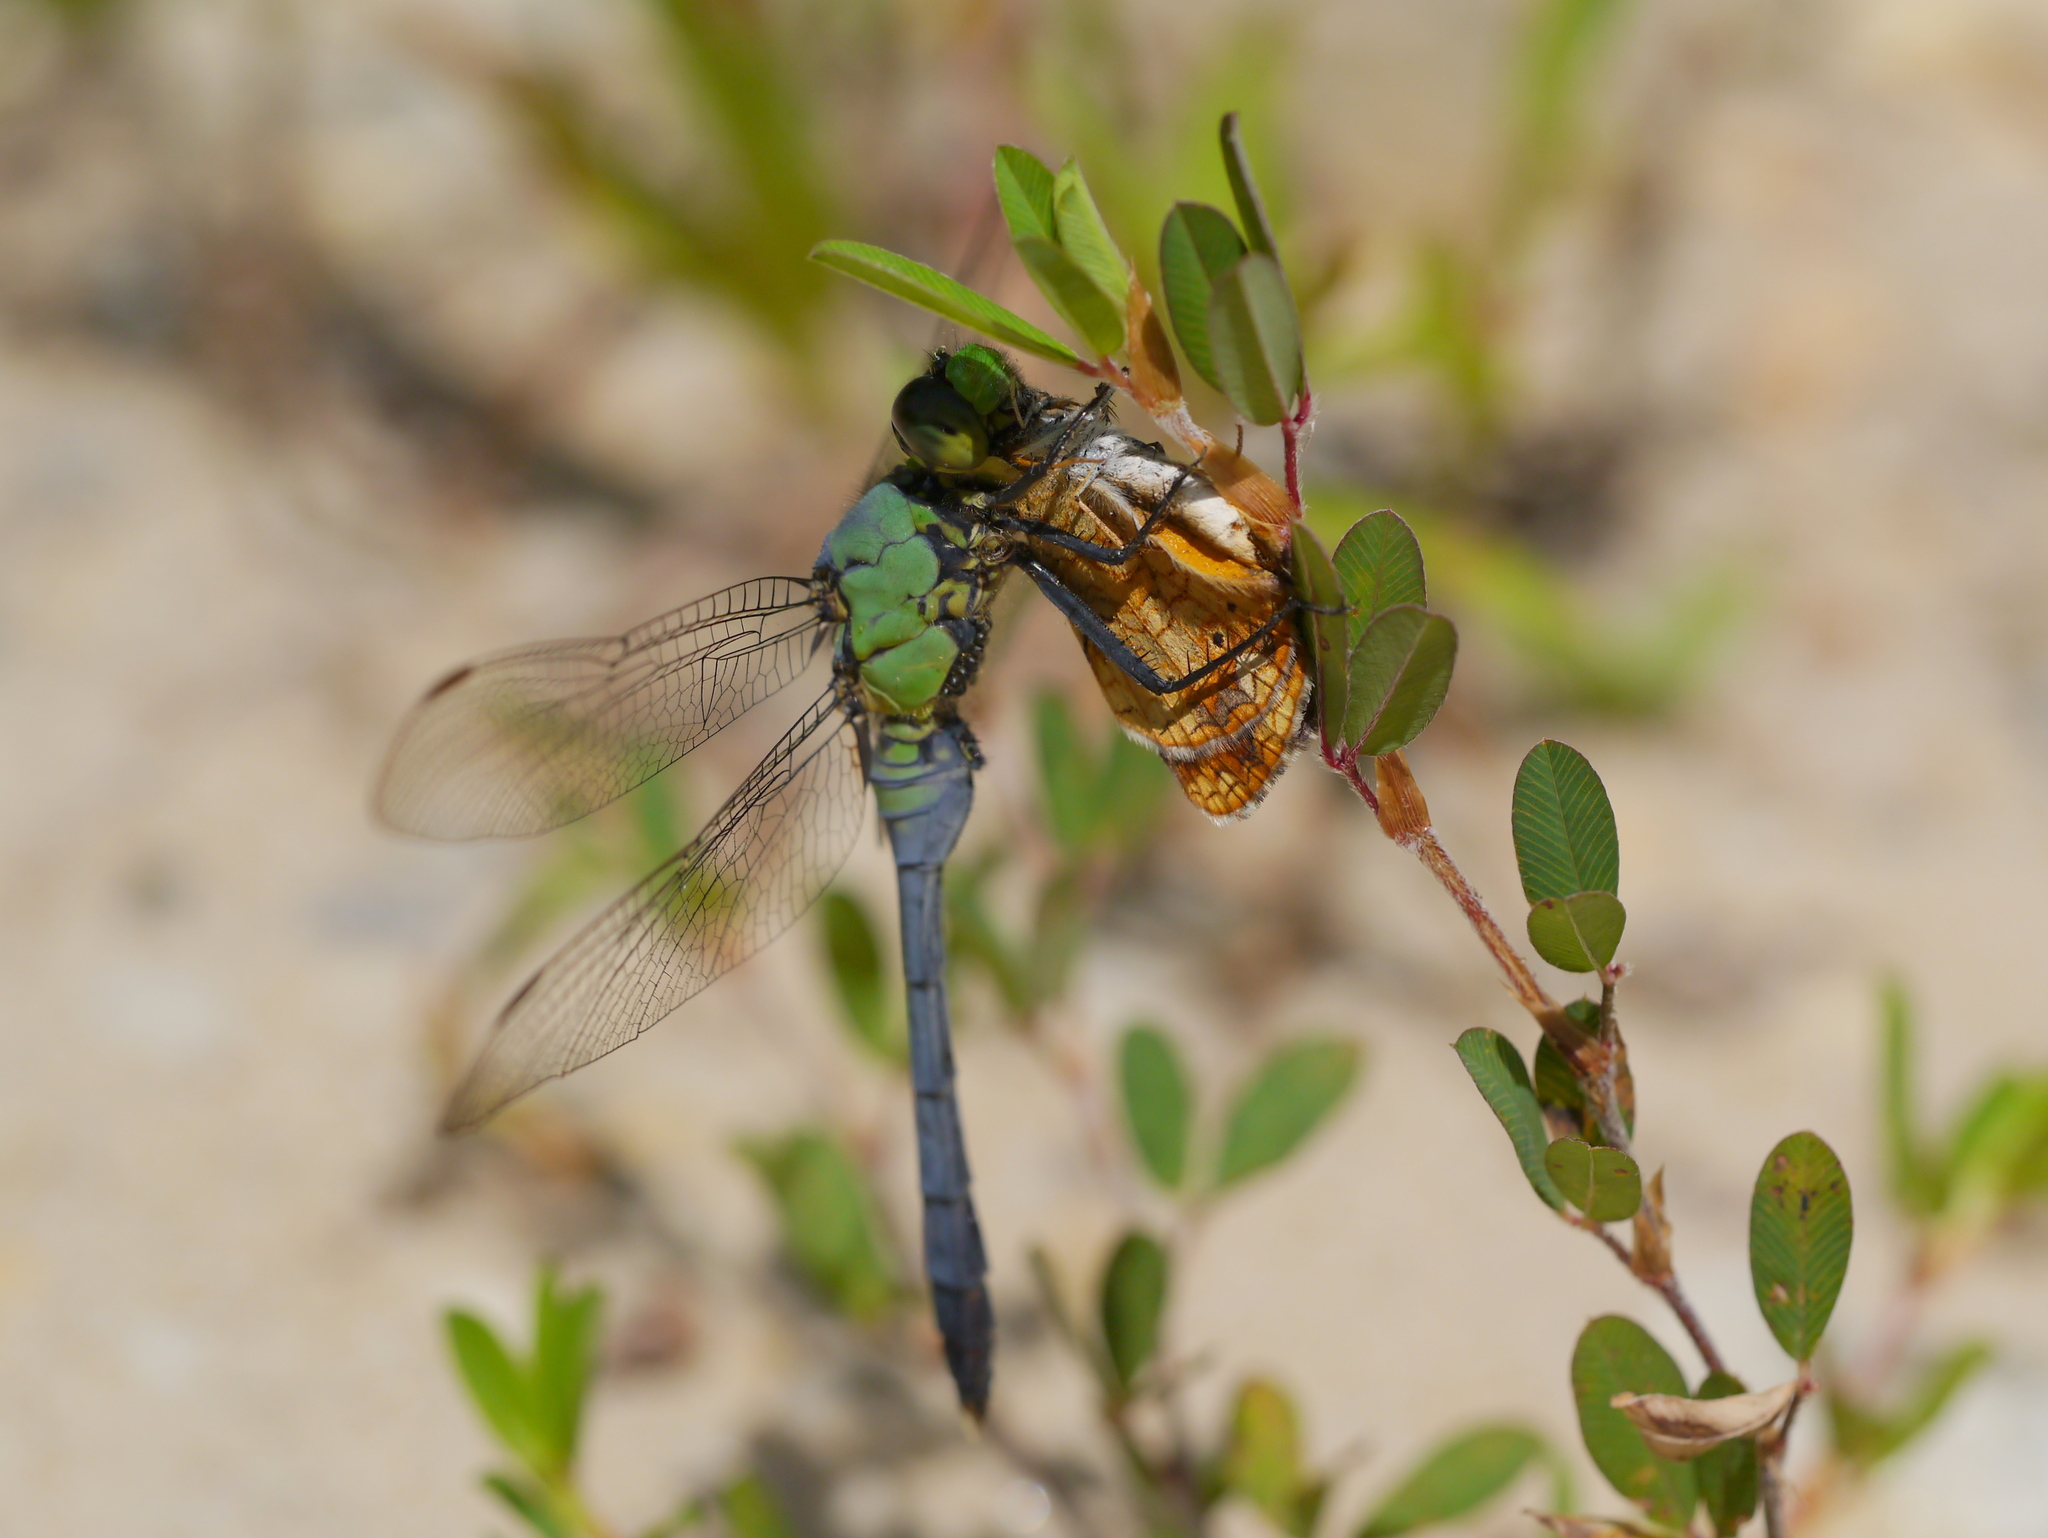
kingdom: Animalia
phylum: Arthropoda
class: Insecta
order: Odonata
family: Libellulidae
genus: Erythemis
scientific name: Erythemis simplicicollis
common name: Eastern pondhawk
